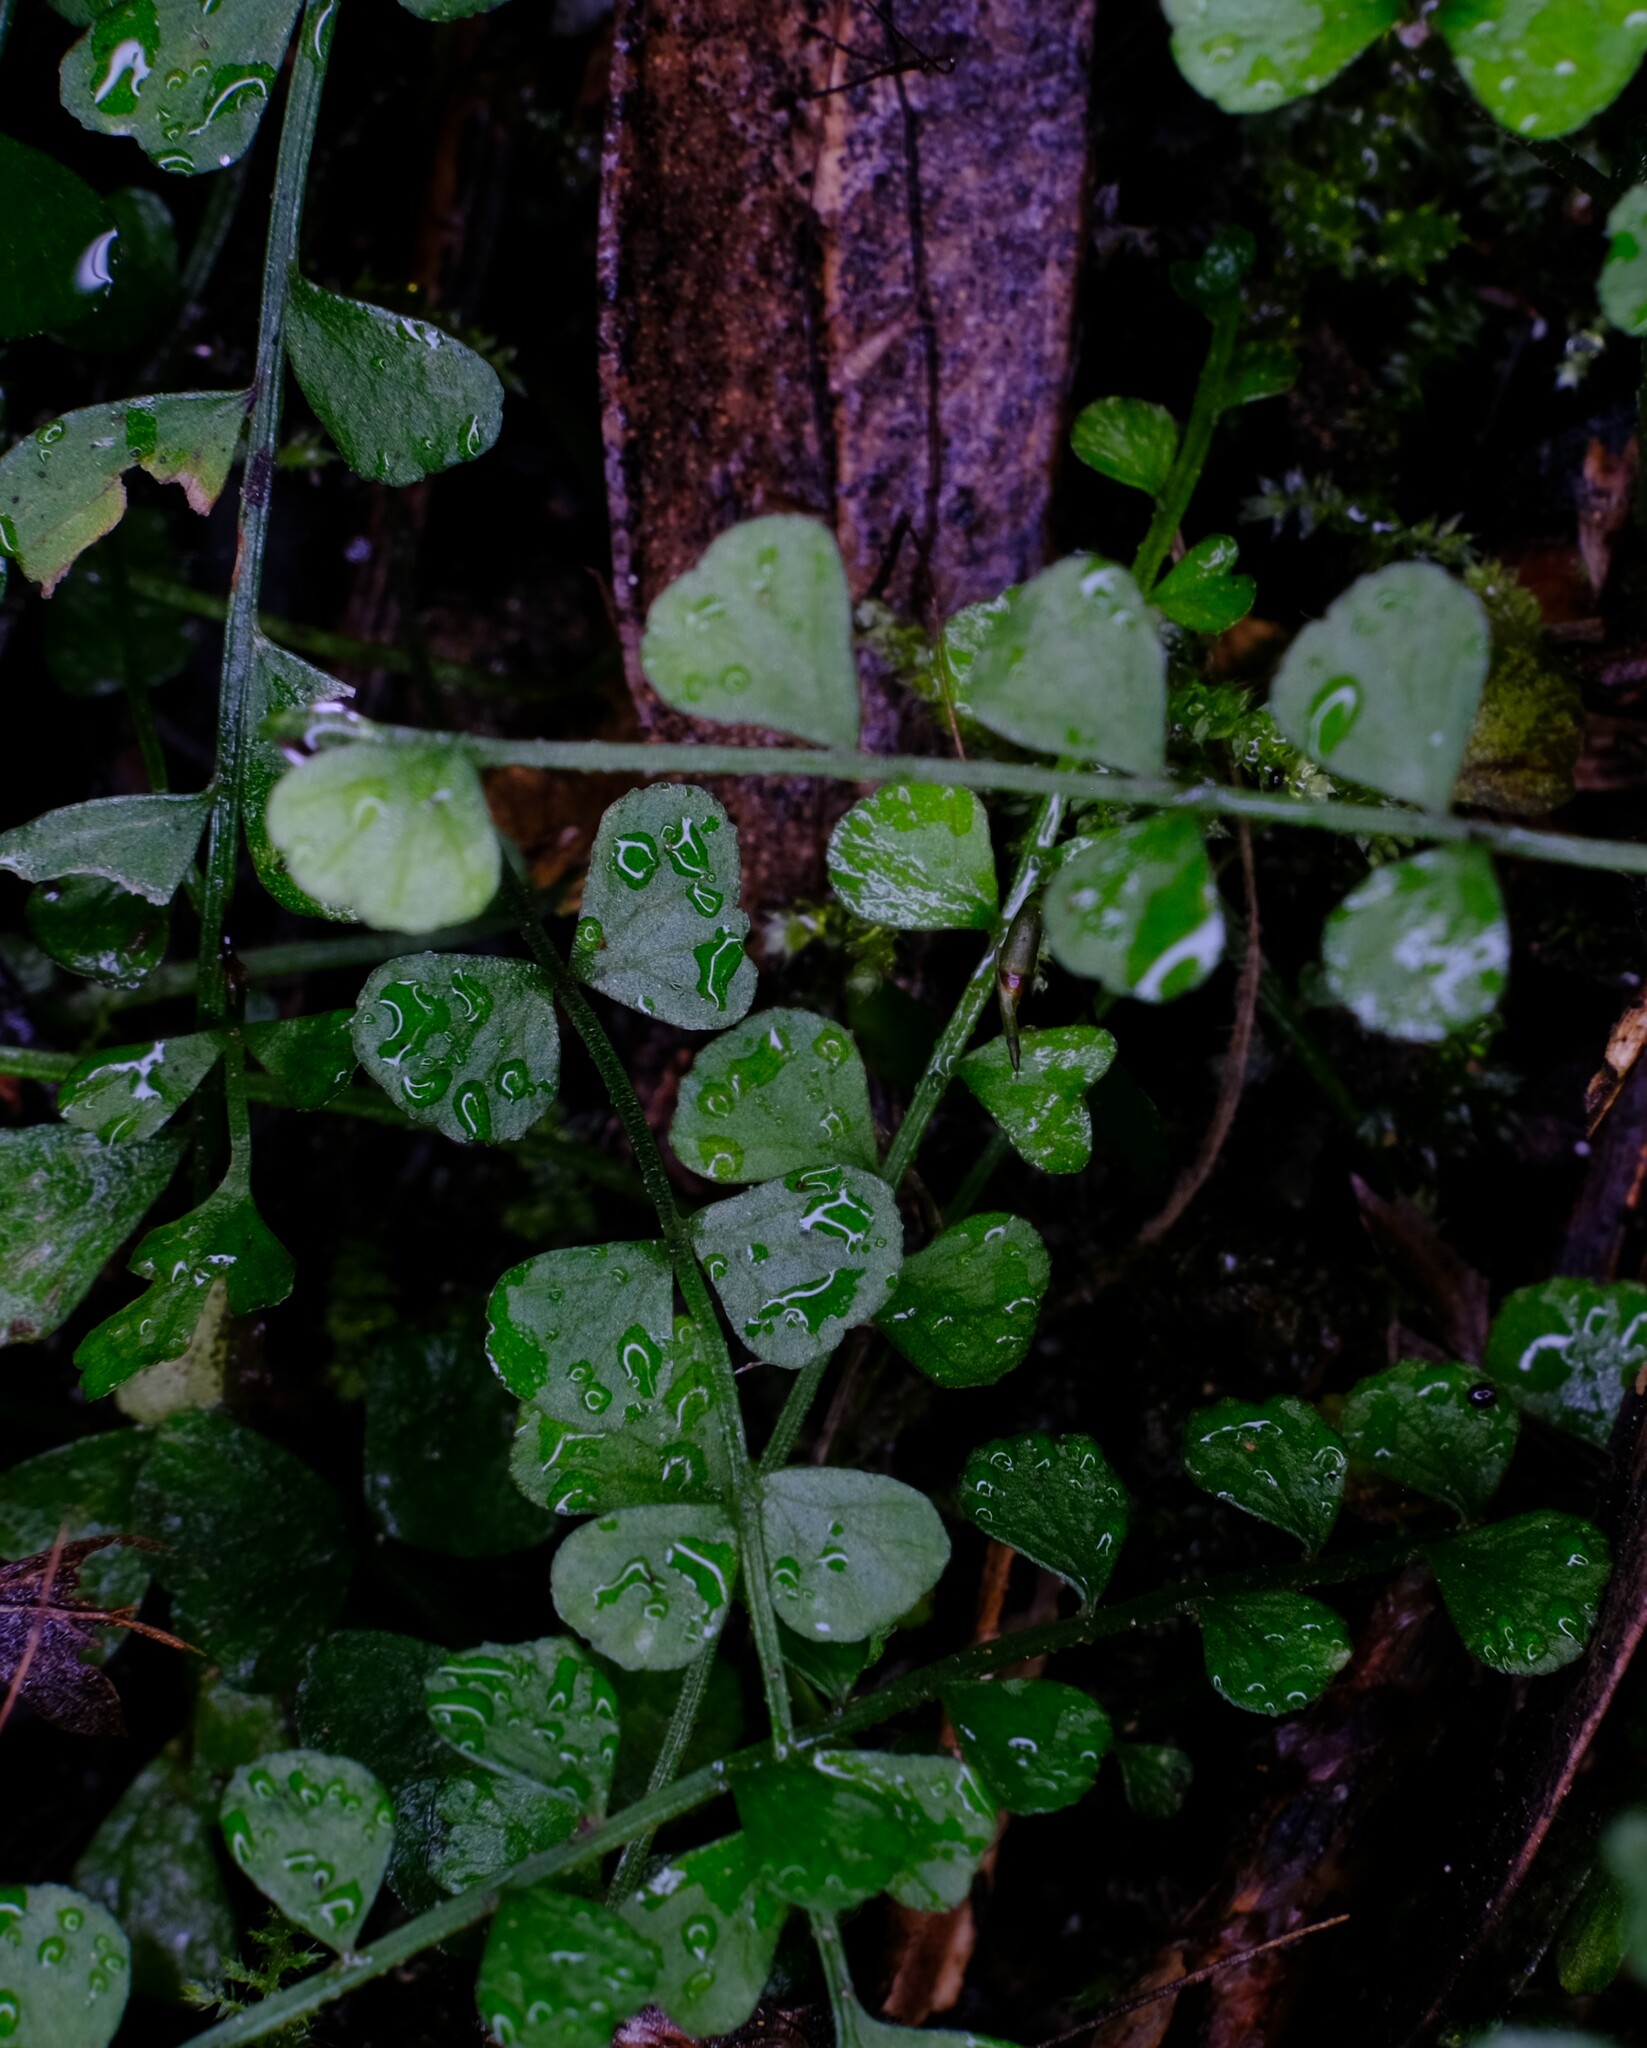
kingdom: Plantae
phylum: Tracheophyta
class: Polypodiopsida
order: Polypodiales
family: Aspleniaceae
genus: Asplenium
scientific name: Asplenium flabellifolium
